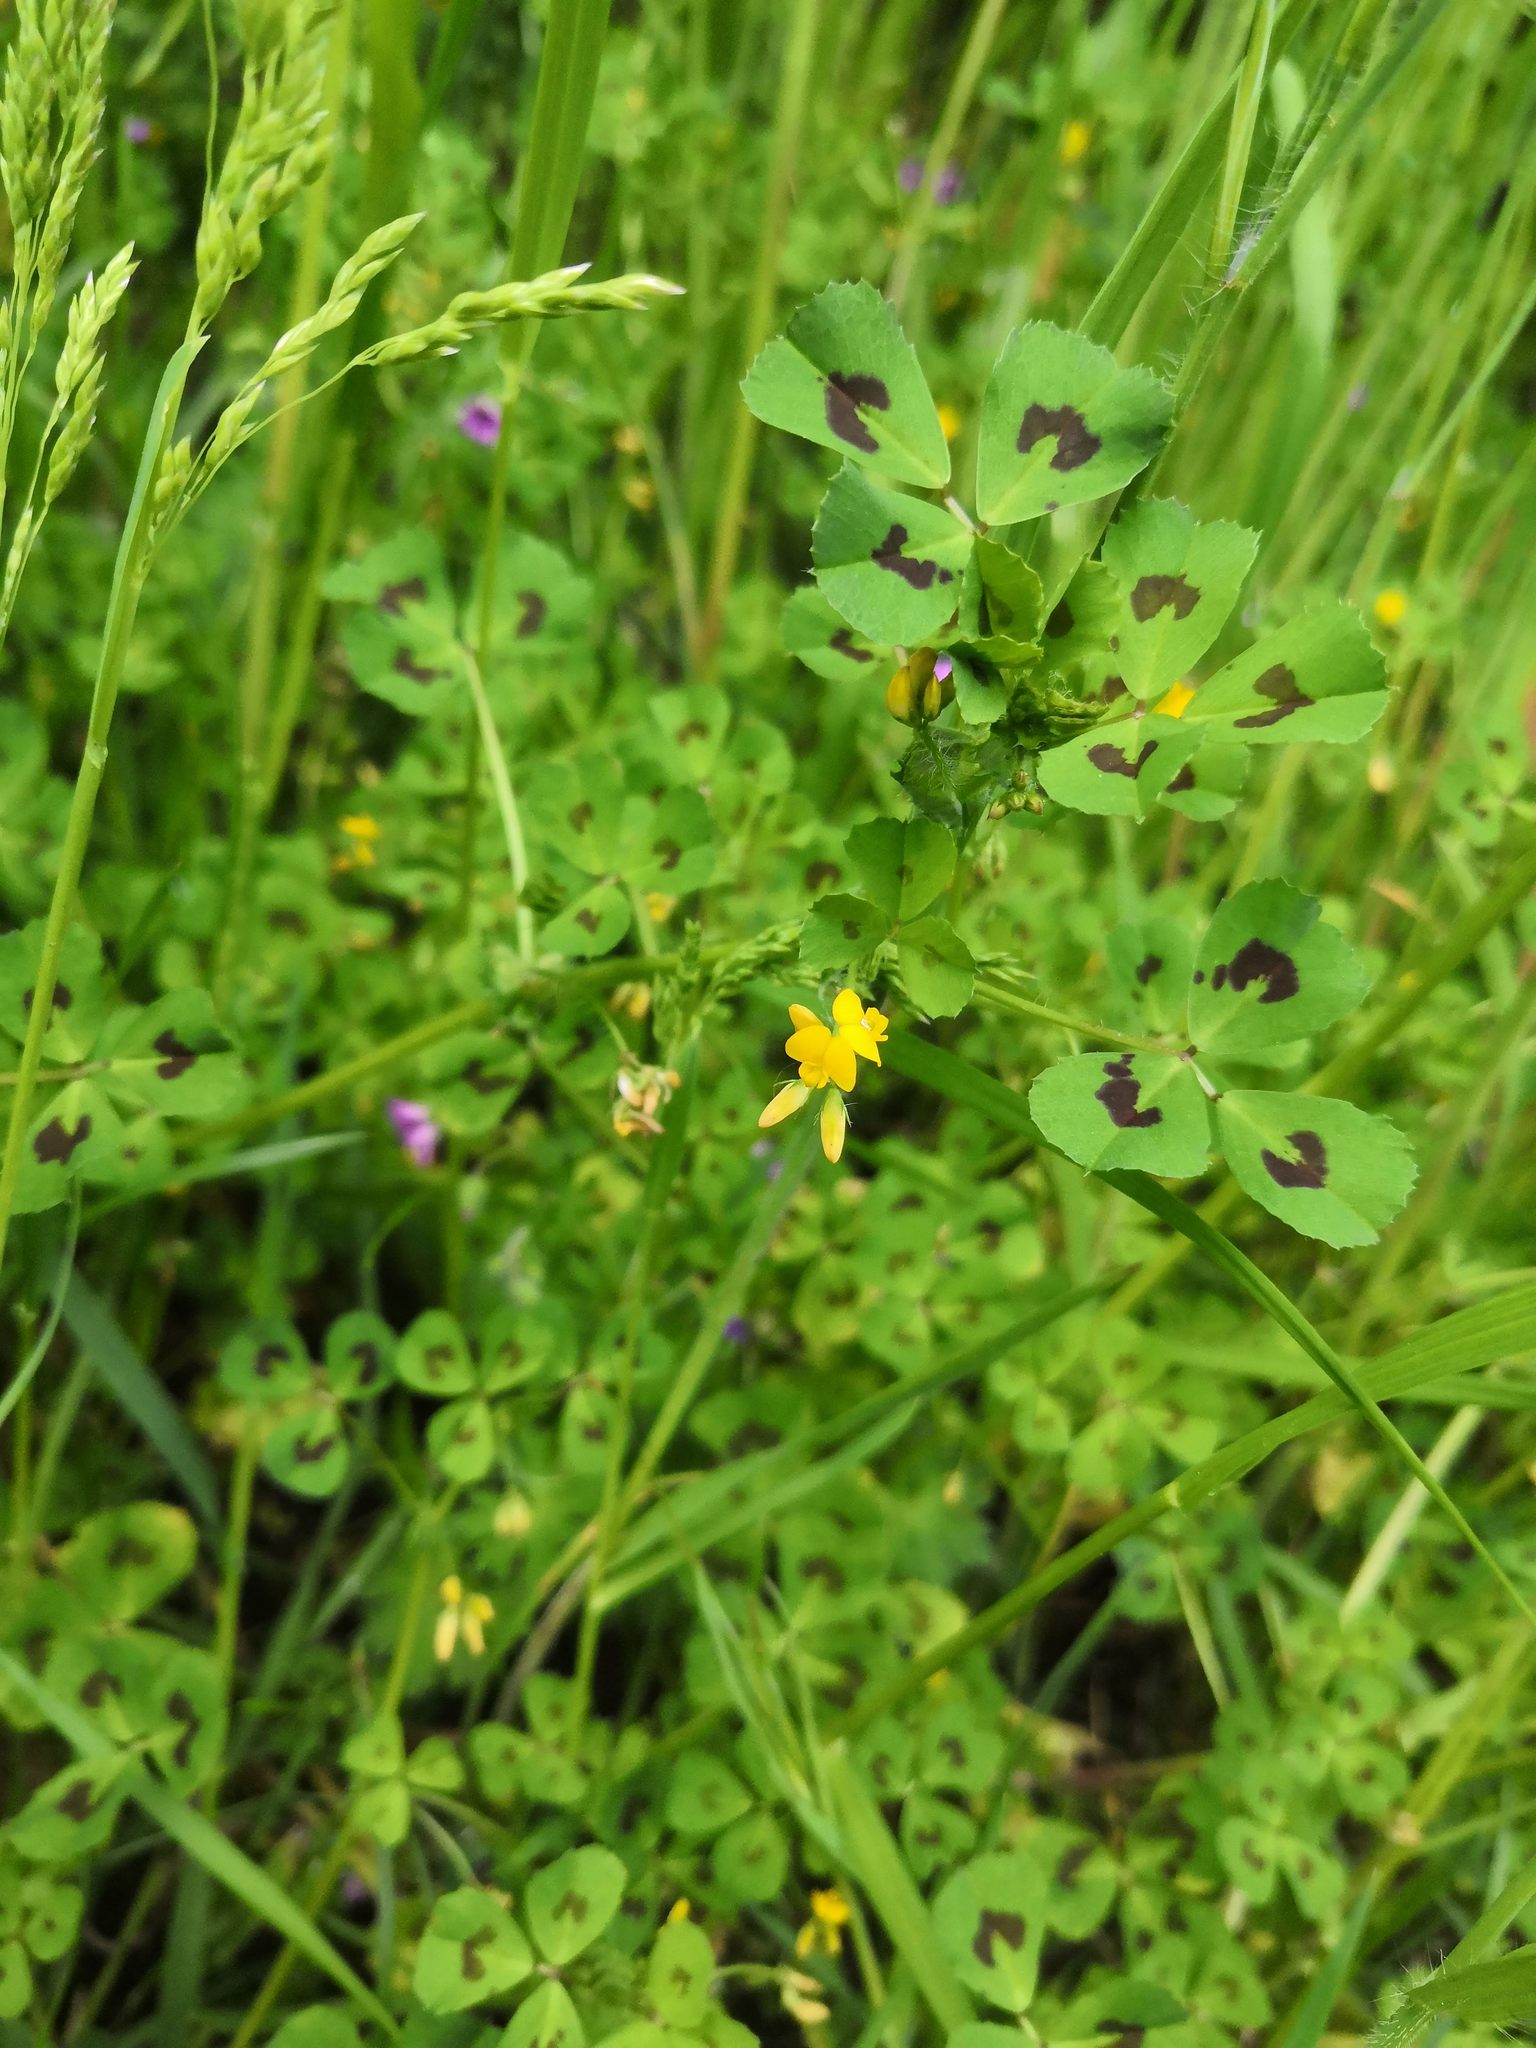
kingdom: Plantae
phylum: Tracheophyta
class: Magnoliopsida
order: Fabales
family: Fabaceae
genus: Medicago
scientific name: Medicago arabica
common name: Spotted medick
